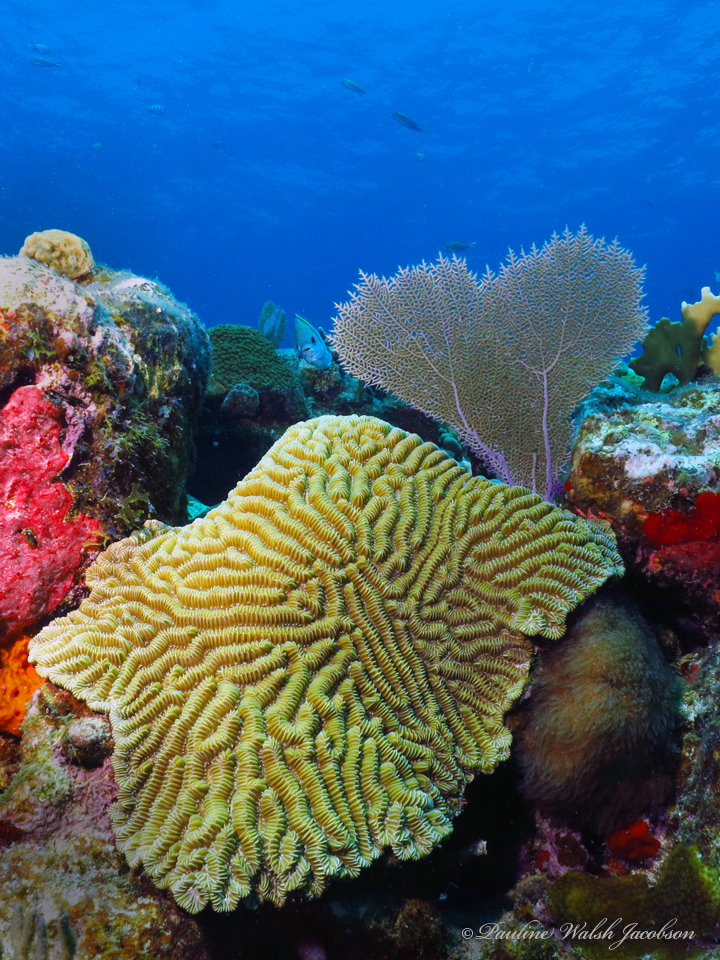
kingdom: Animalia
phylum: Cnidaria
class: Anthozoa
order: Scleractinia
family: Meandrinidae
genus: Meandrina
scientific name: Meandrina meandrites
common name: Maze coral
